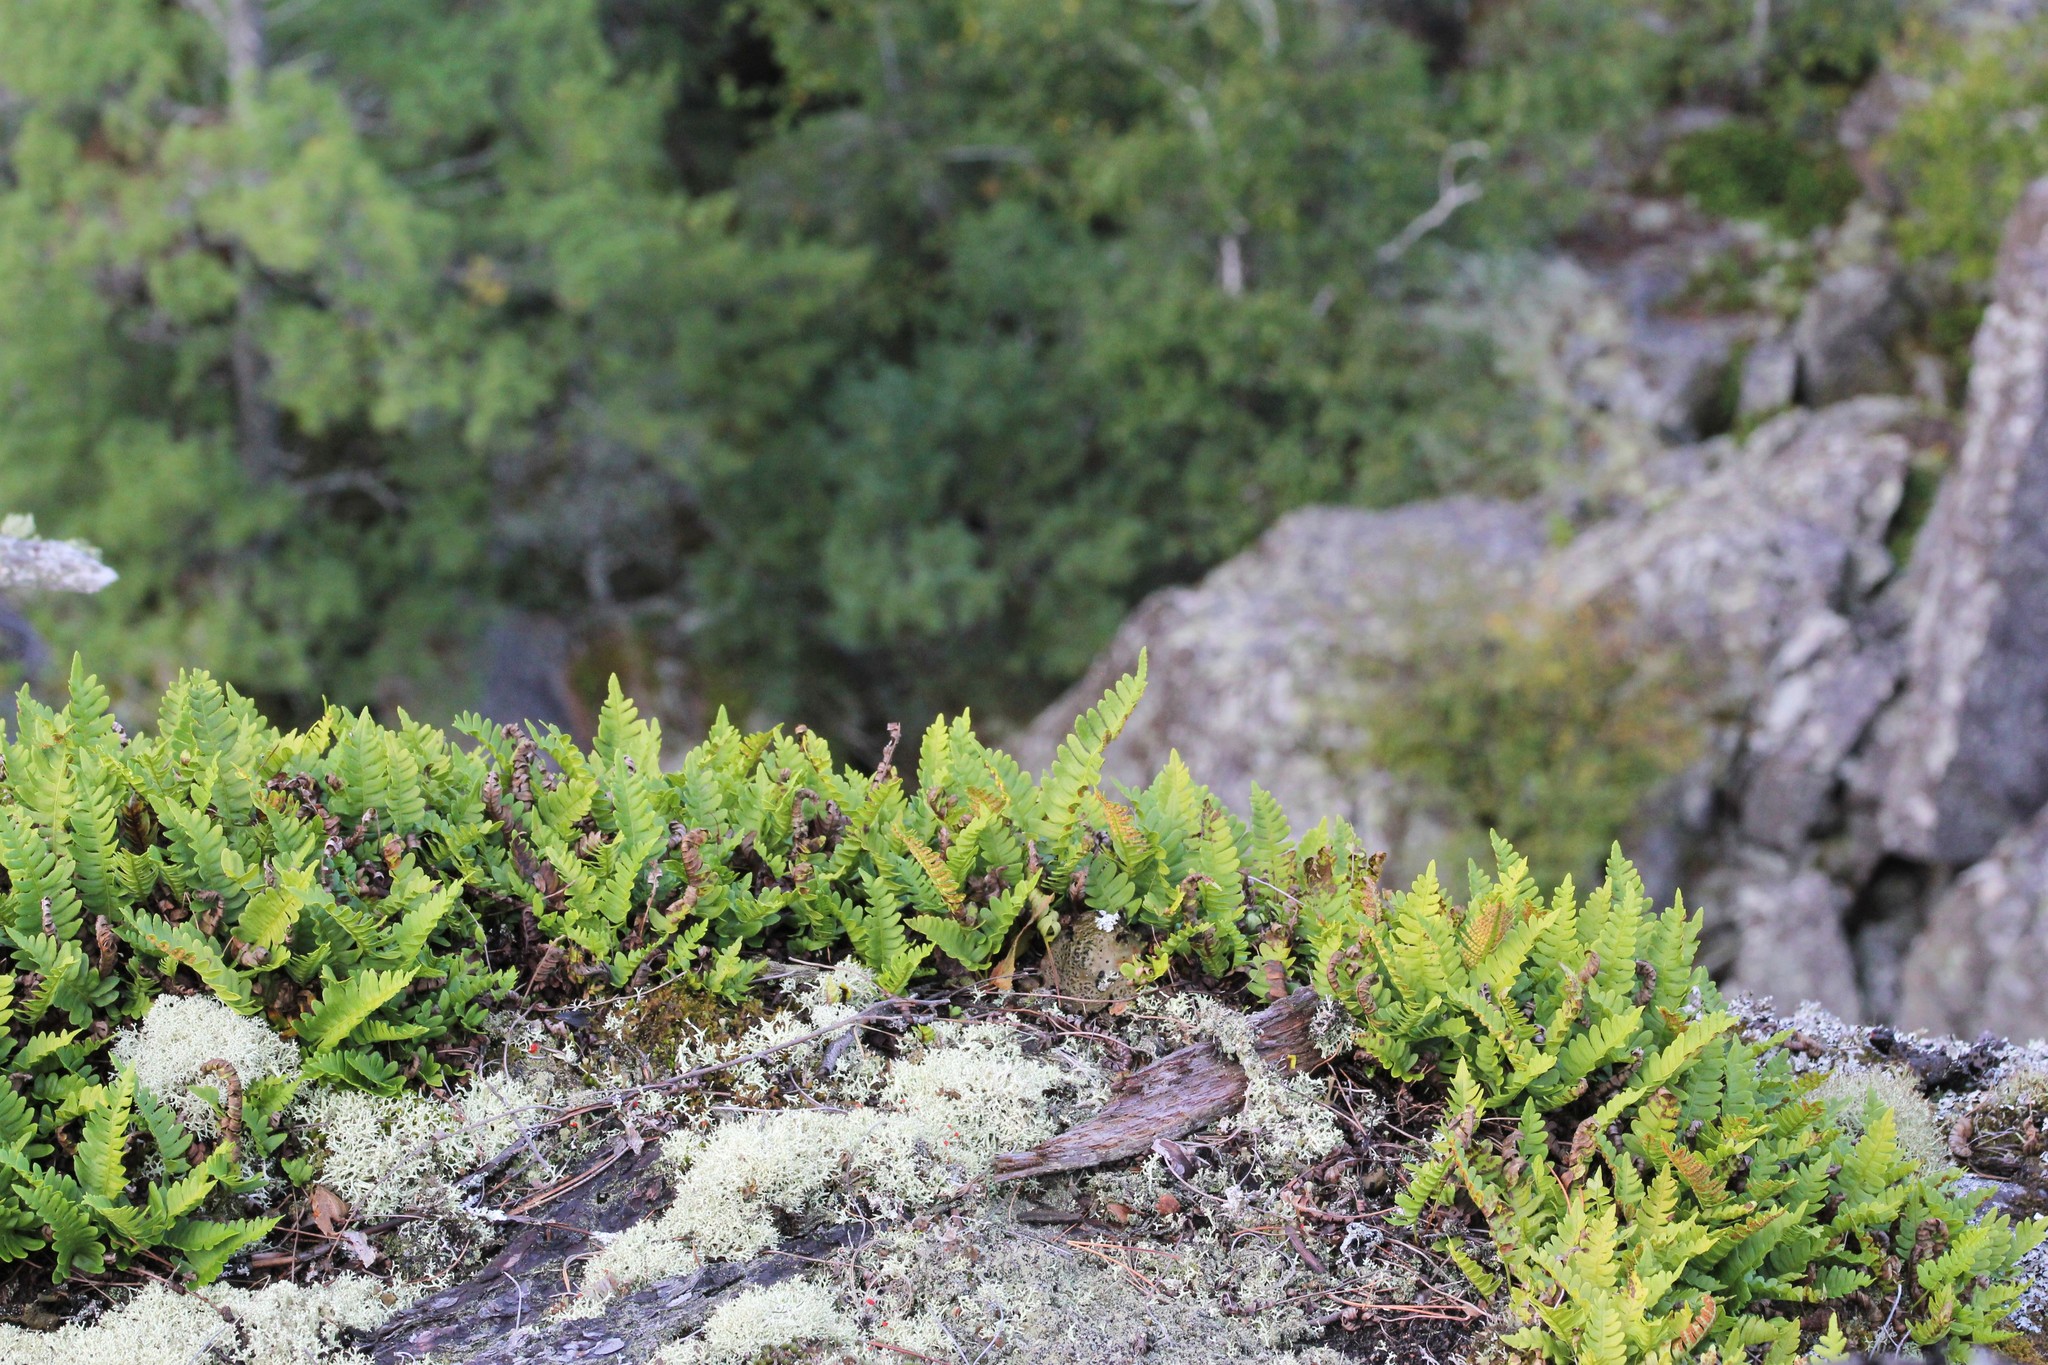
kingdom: Plantae
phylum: Tracheophyta
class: Polypodiopsida
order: Polypodiales
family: Woodsiaceae
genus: Woodsia
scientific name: Woodsia ilvensis
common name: Fragrant woodsia
